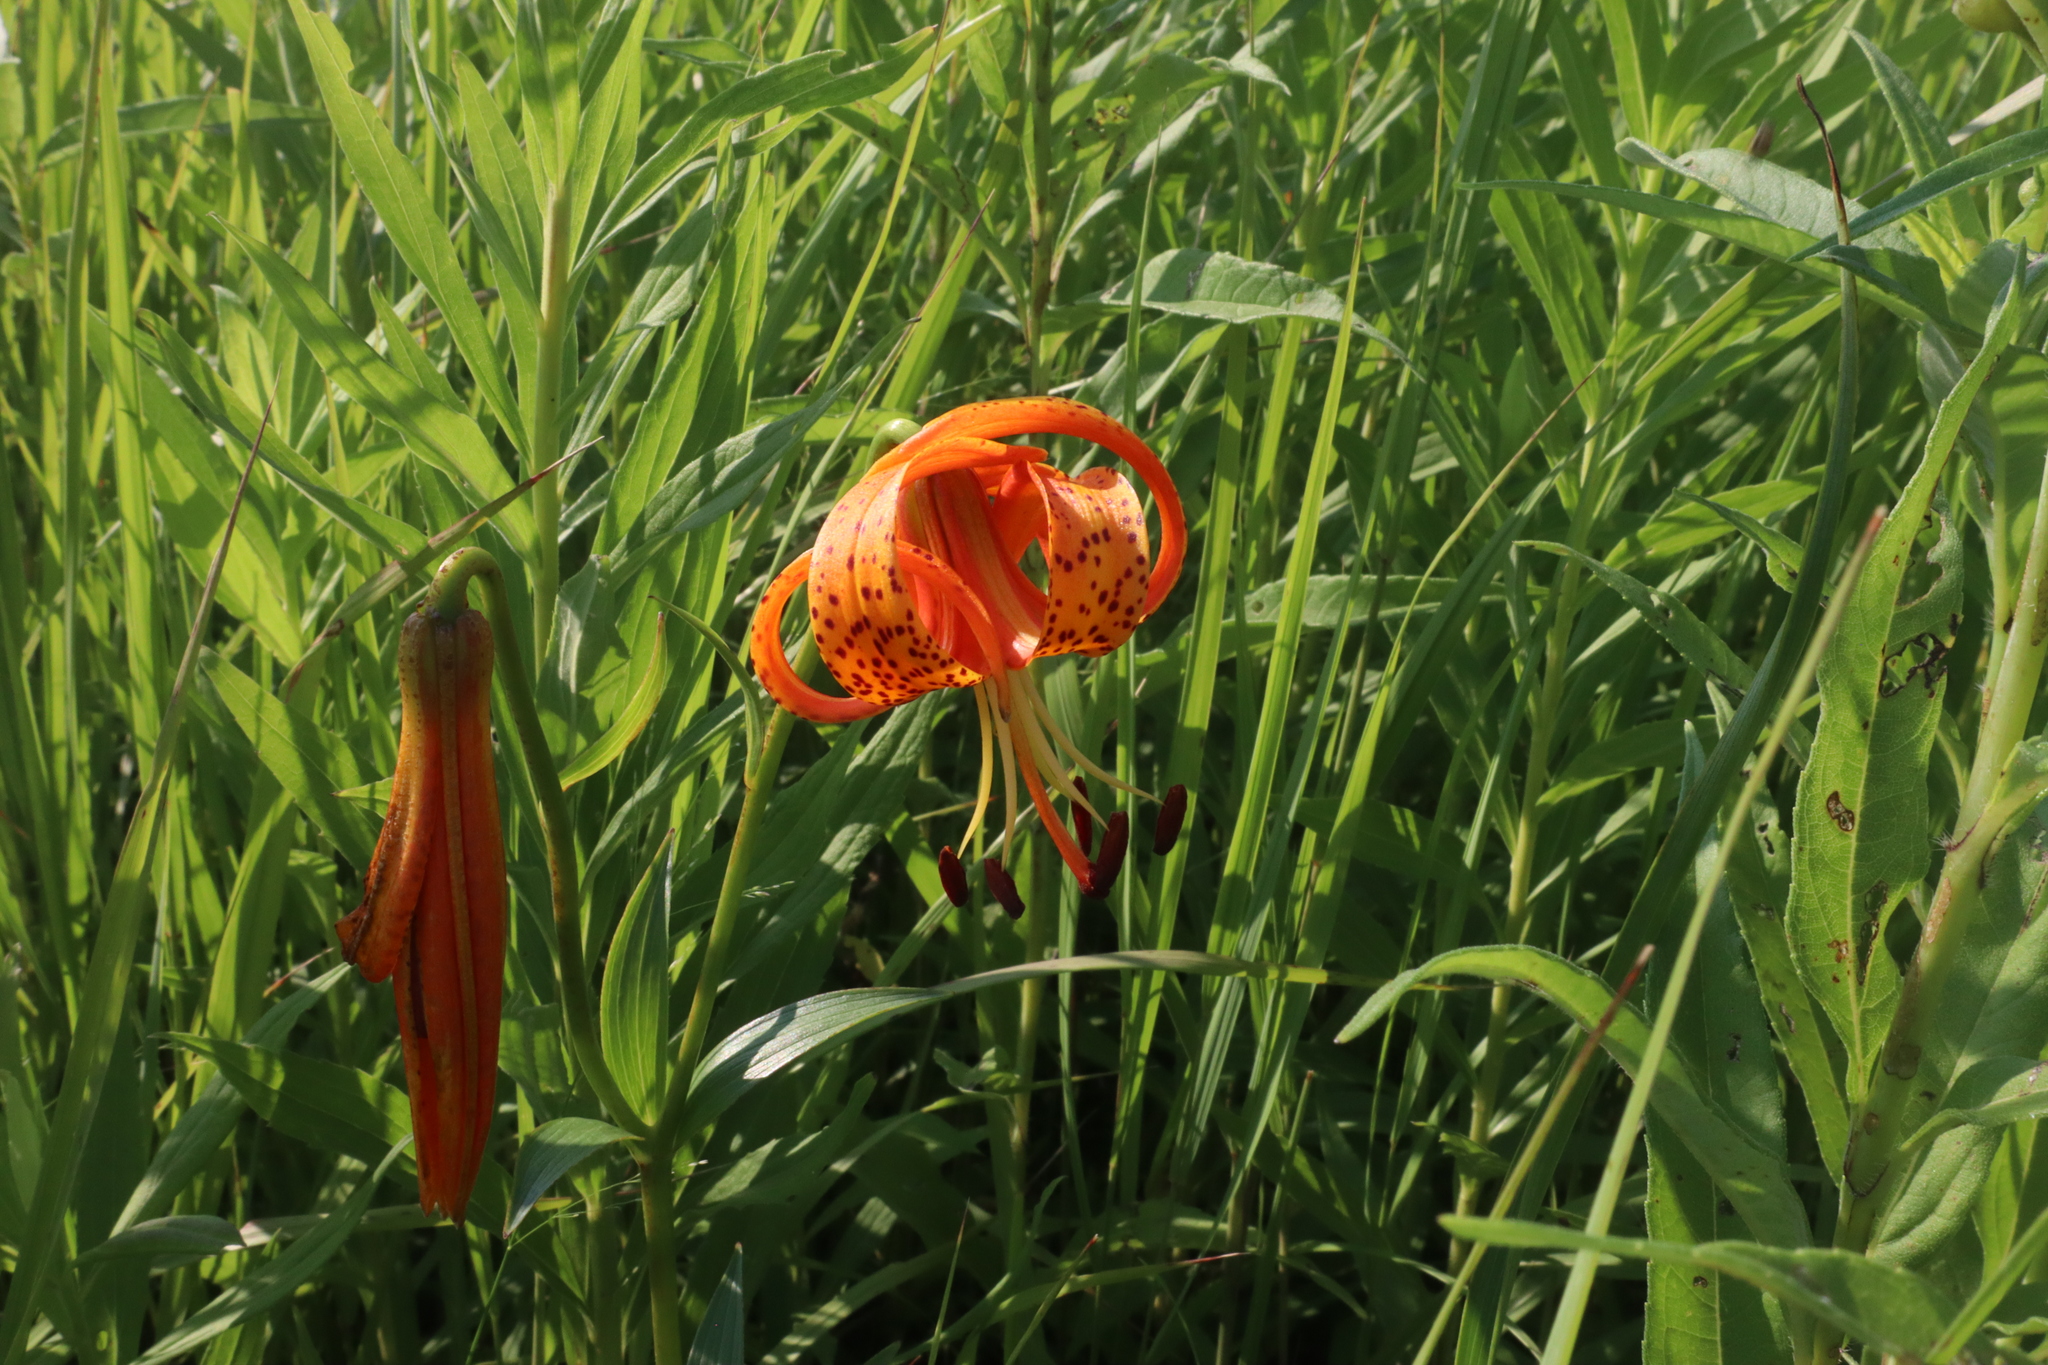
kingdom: Plantae
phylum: Tracheophyta
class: Liliopsida
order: Liliales
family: Liliaceae
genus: Lilium
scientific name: Lilium michiganense
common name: Michigan lily
